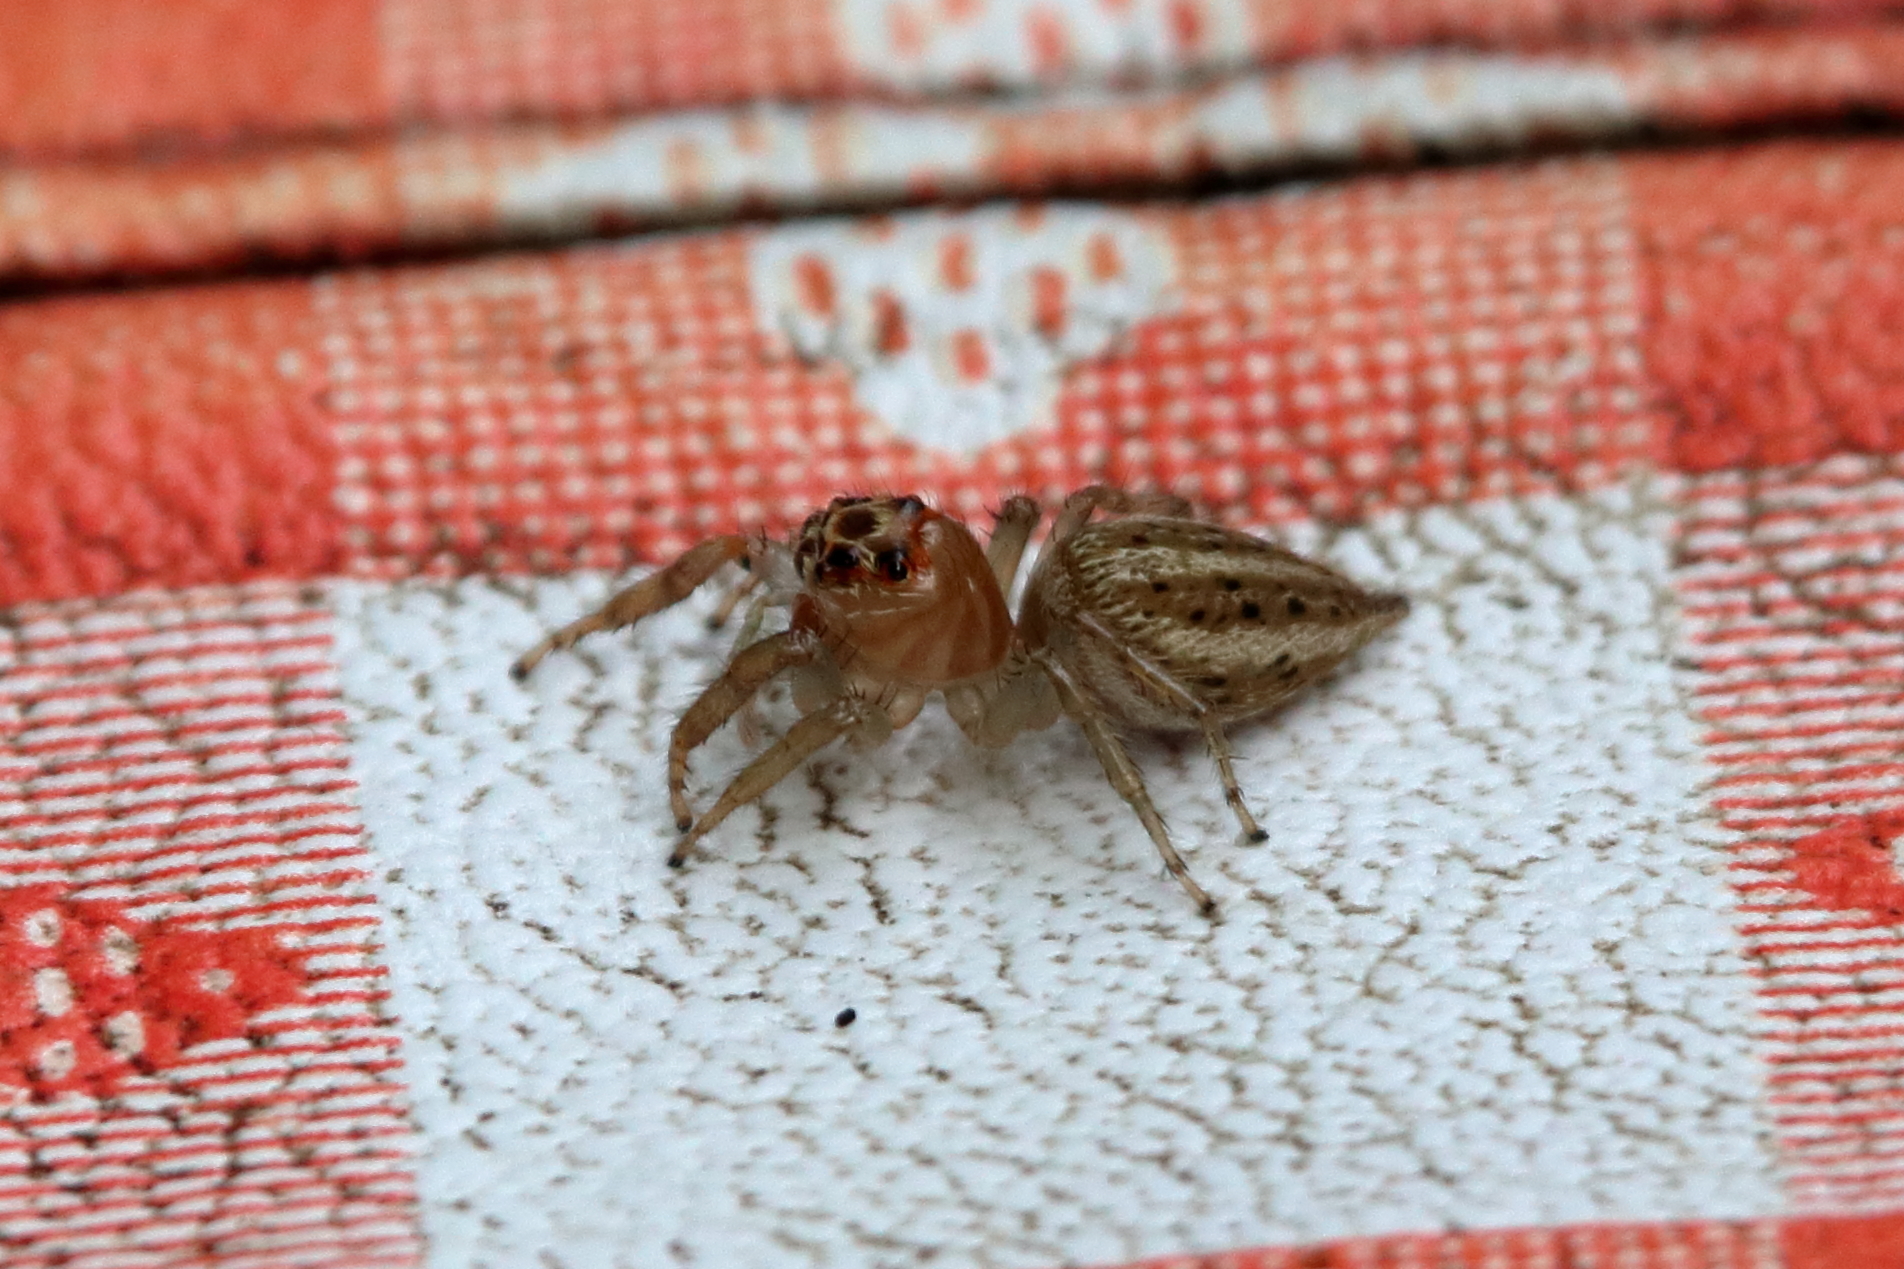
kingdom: Animalia
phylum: Arthropoda
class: Arachnida
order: Araneae
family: Salticidae
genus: Colonus
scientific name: Colonus sylvanus
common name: Jumping spiders
